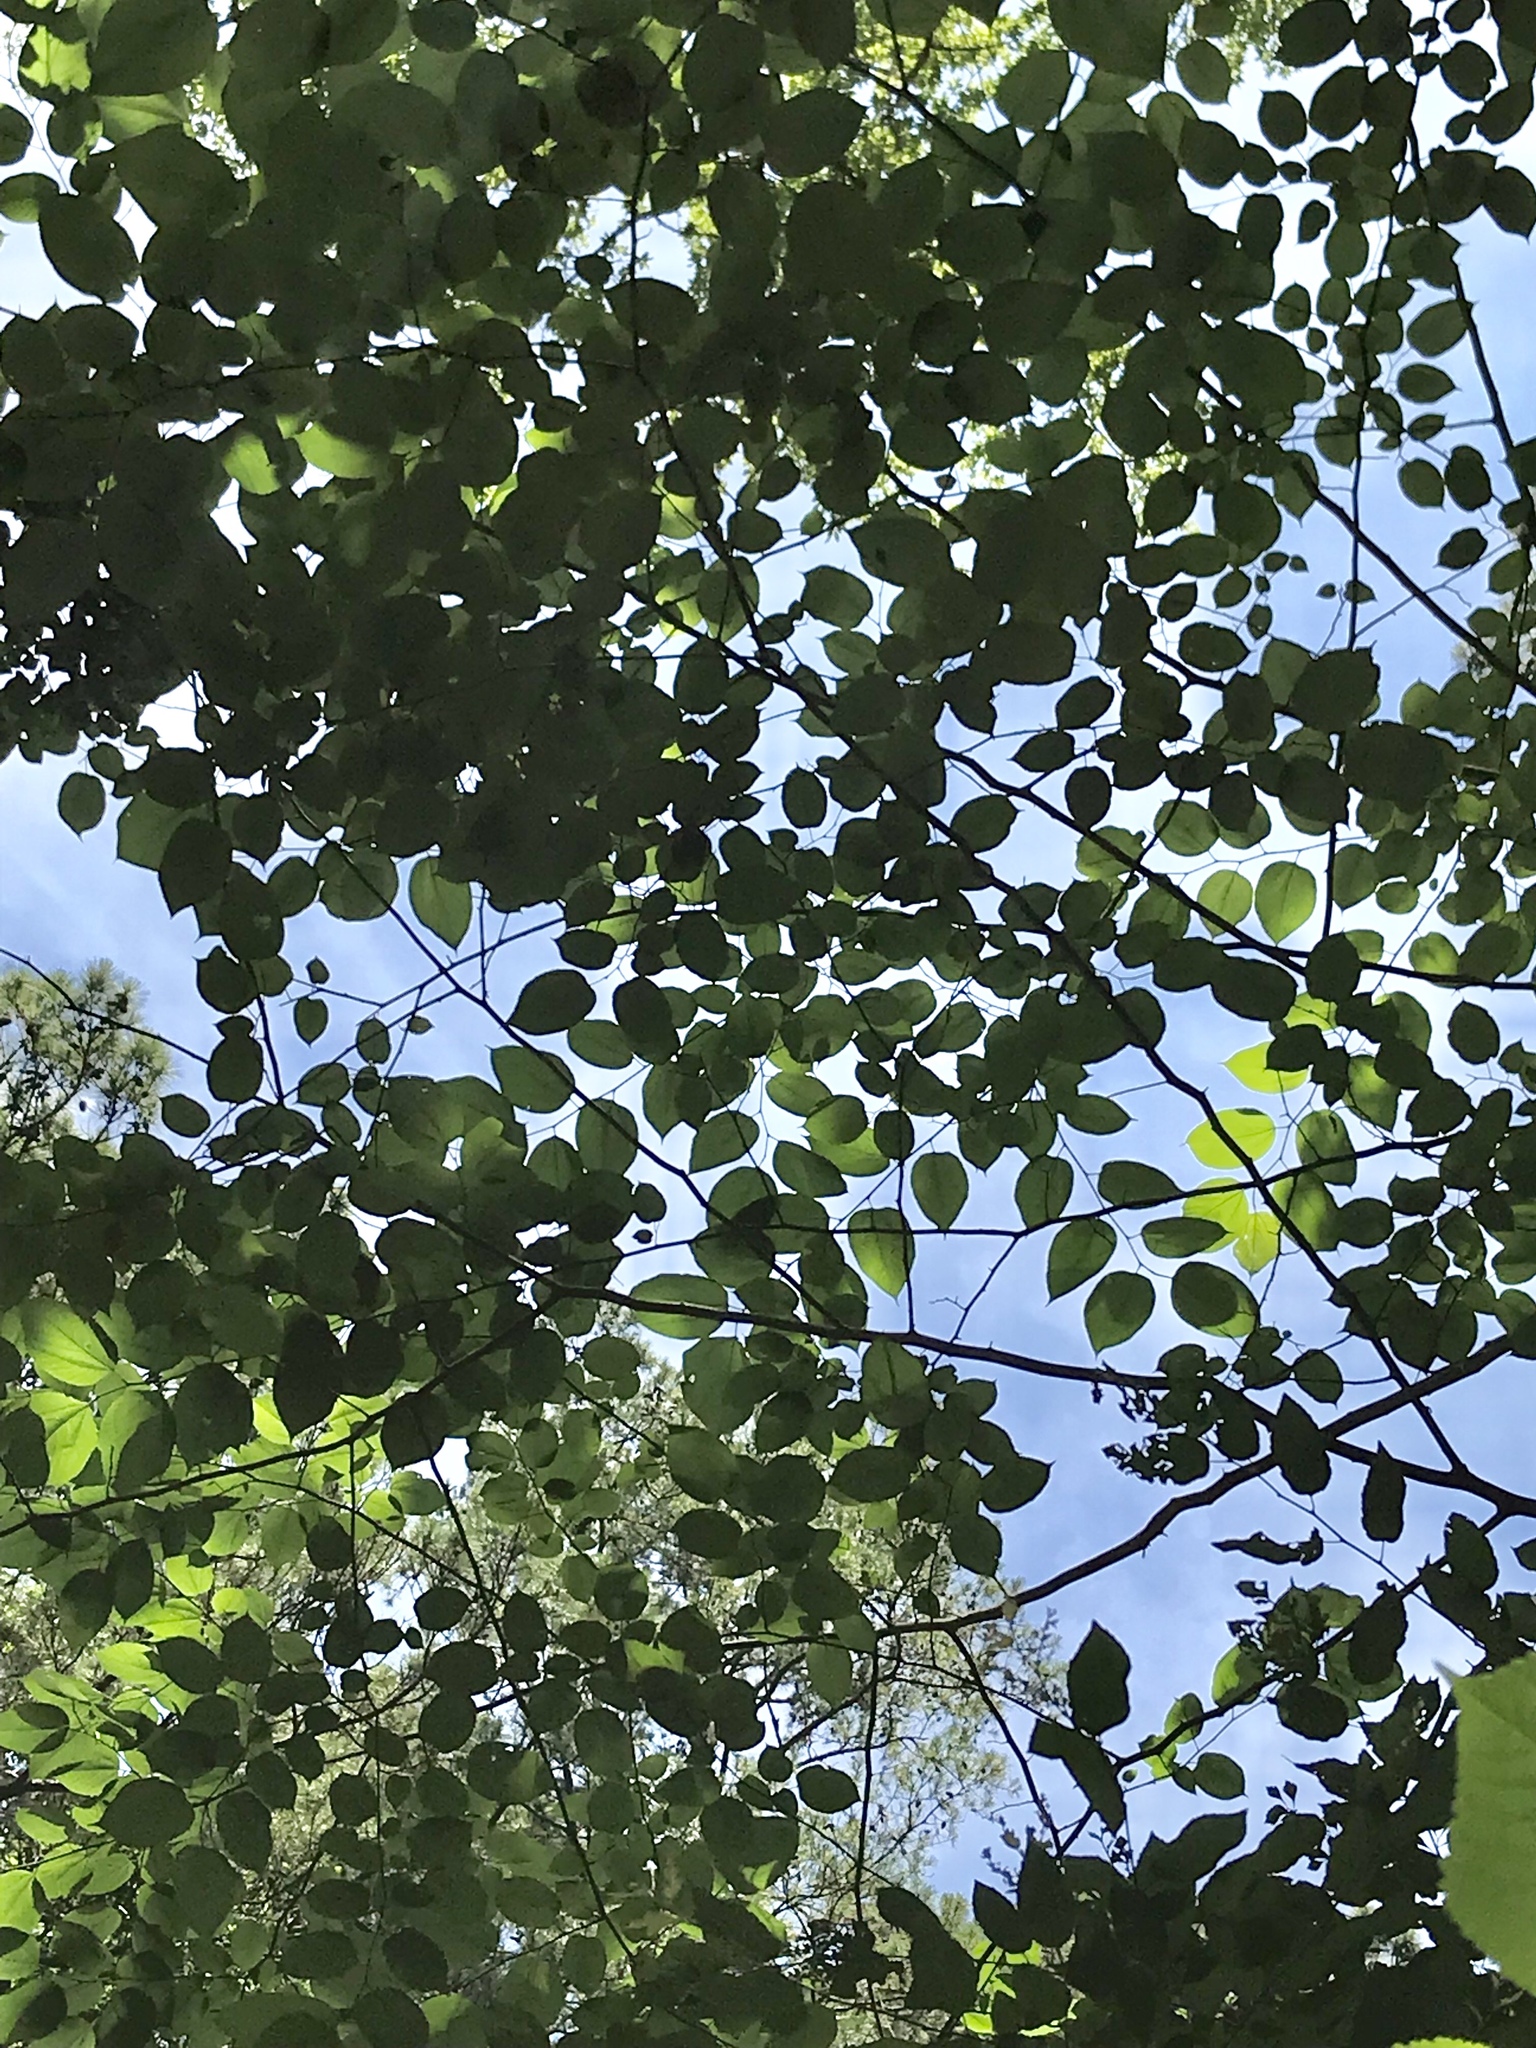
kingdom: Plantae
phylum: Tracheophyta
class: Magnoliopsida
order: Rosales
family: Moraceae
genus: Morus
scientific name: Morus rubra
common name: Red mulberry
